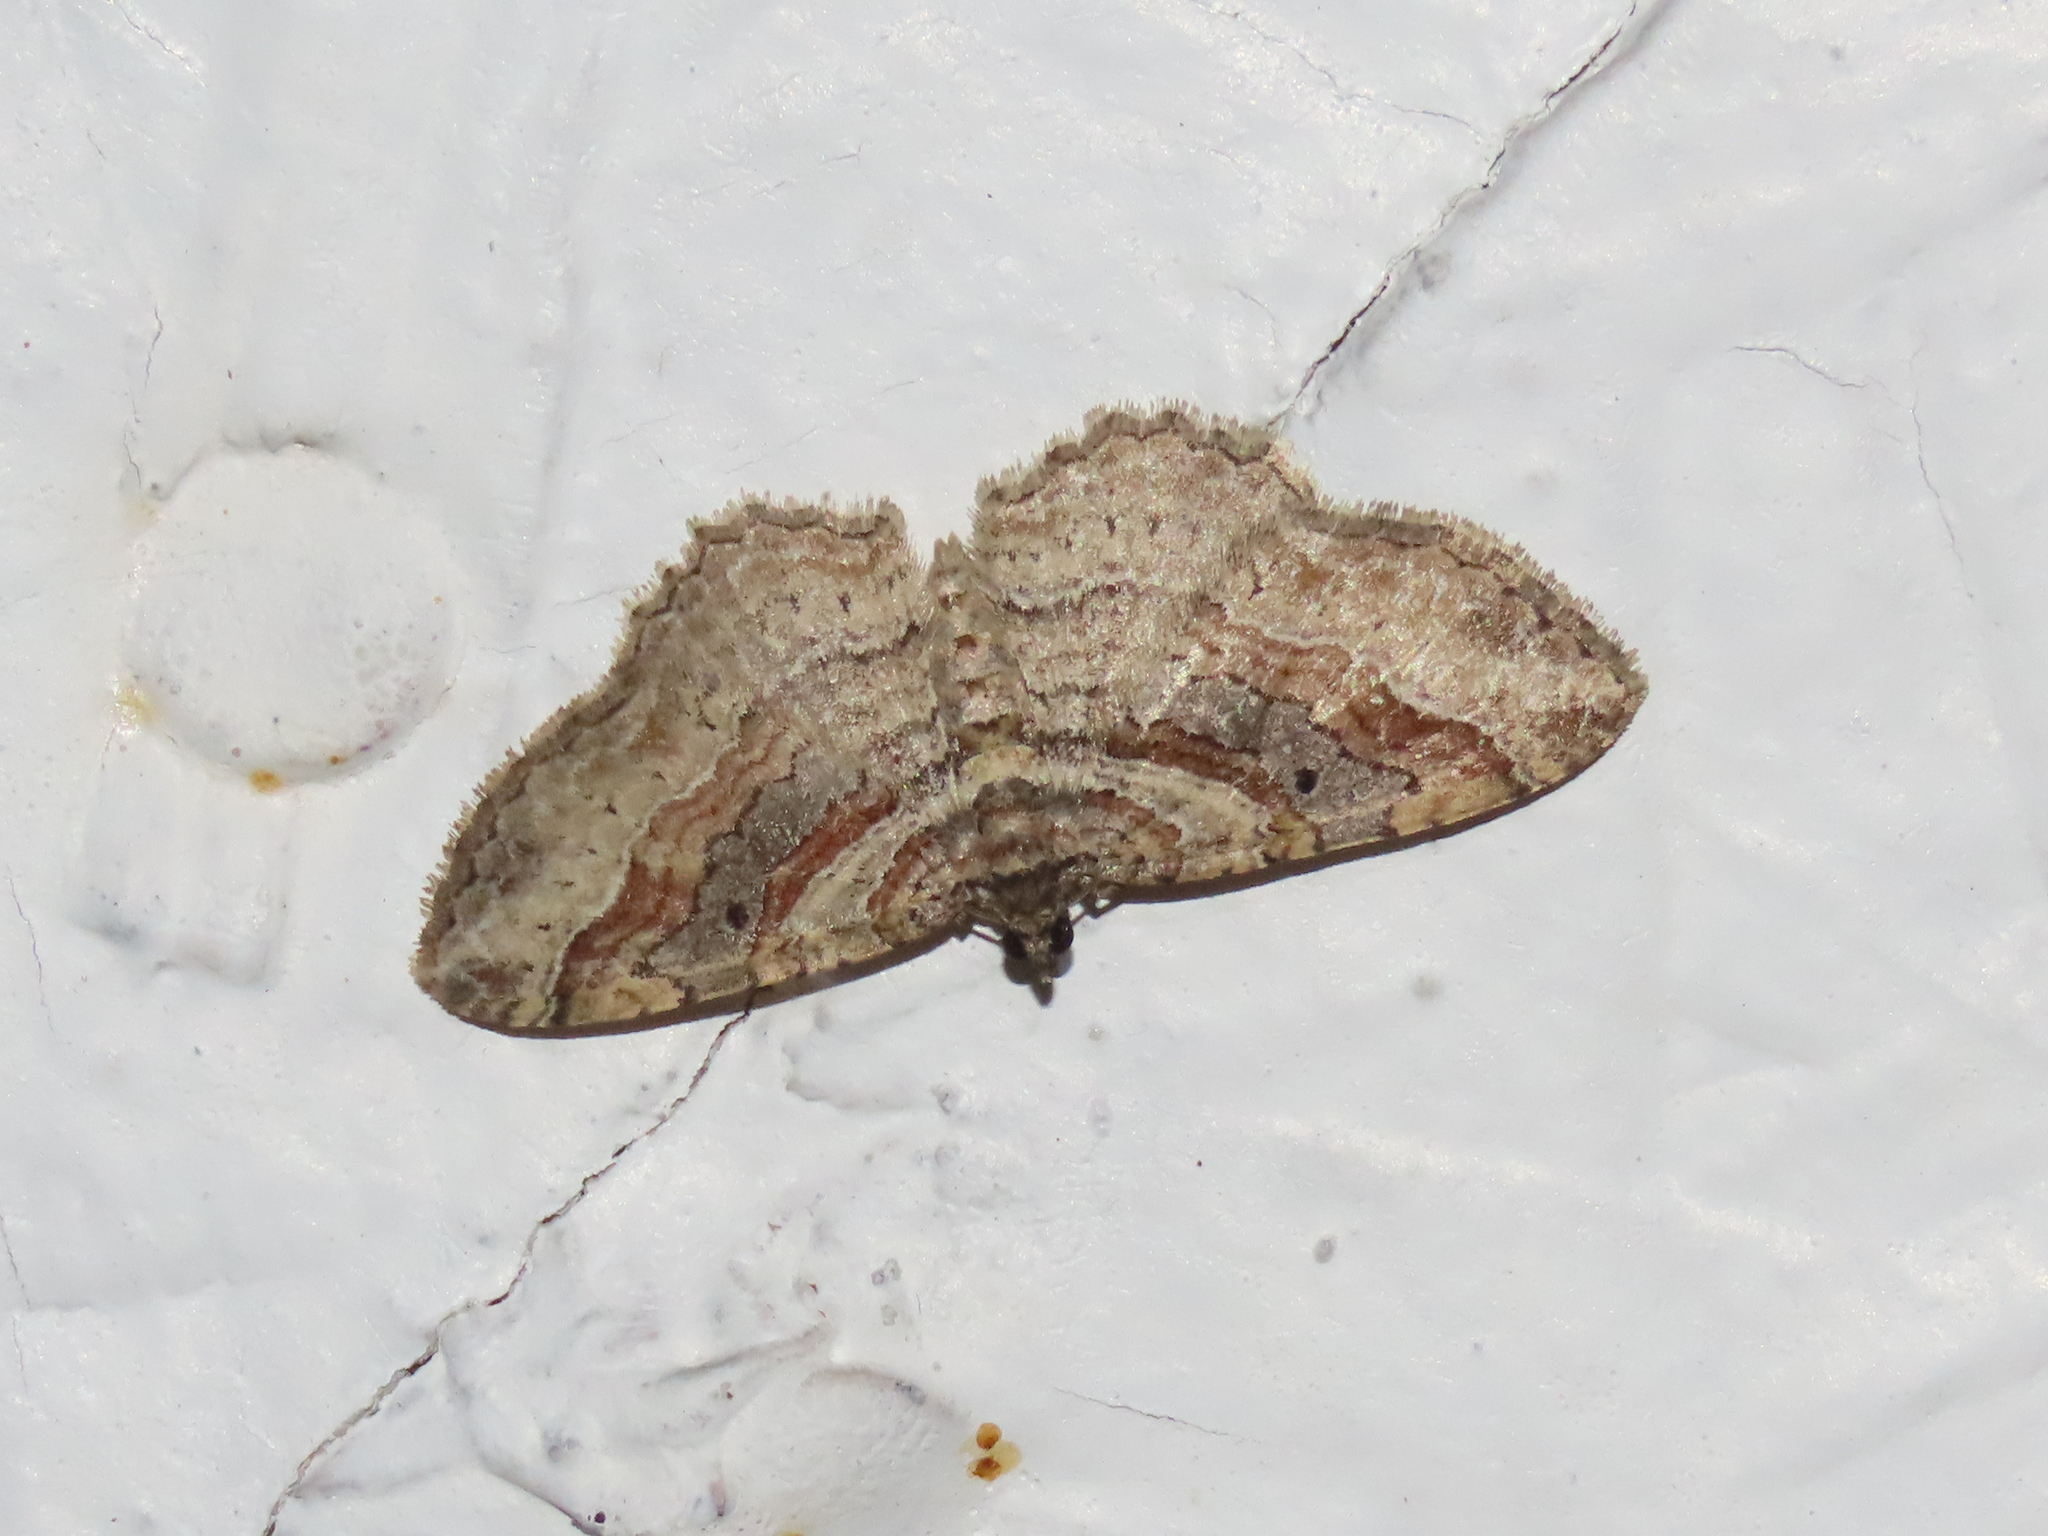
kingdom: Animalia
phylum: Arthropoda
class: Insecta
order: Lepidoptera
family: Geometridae
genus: Costaconvexa
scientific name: Costaconvexa centrostrigaria
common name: Bent-line carpet
